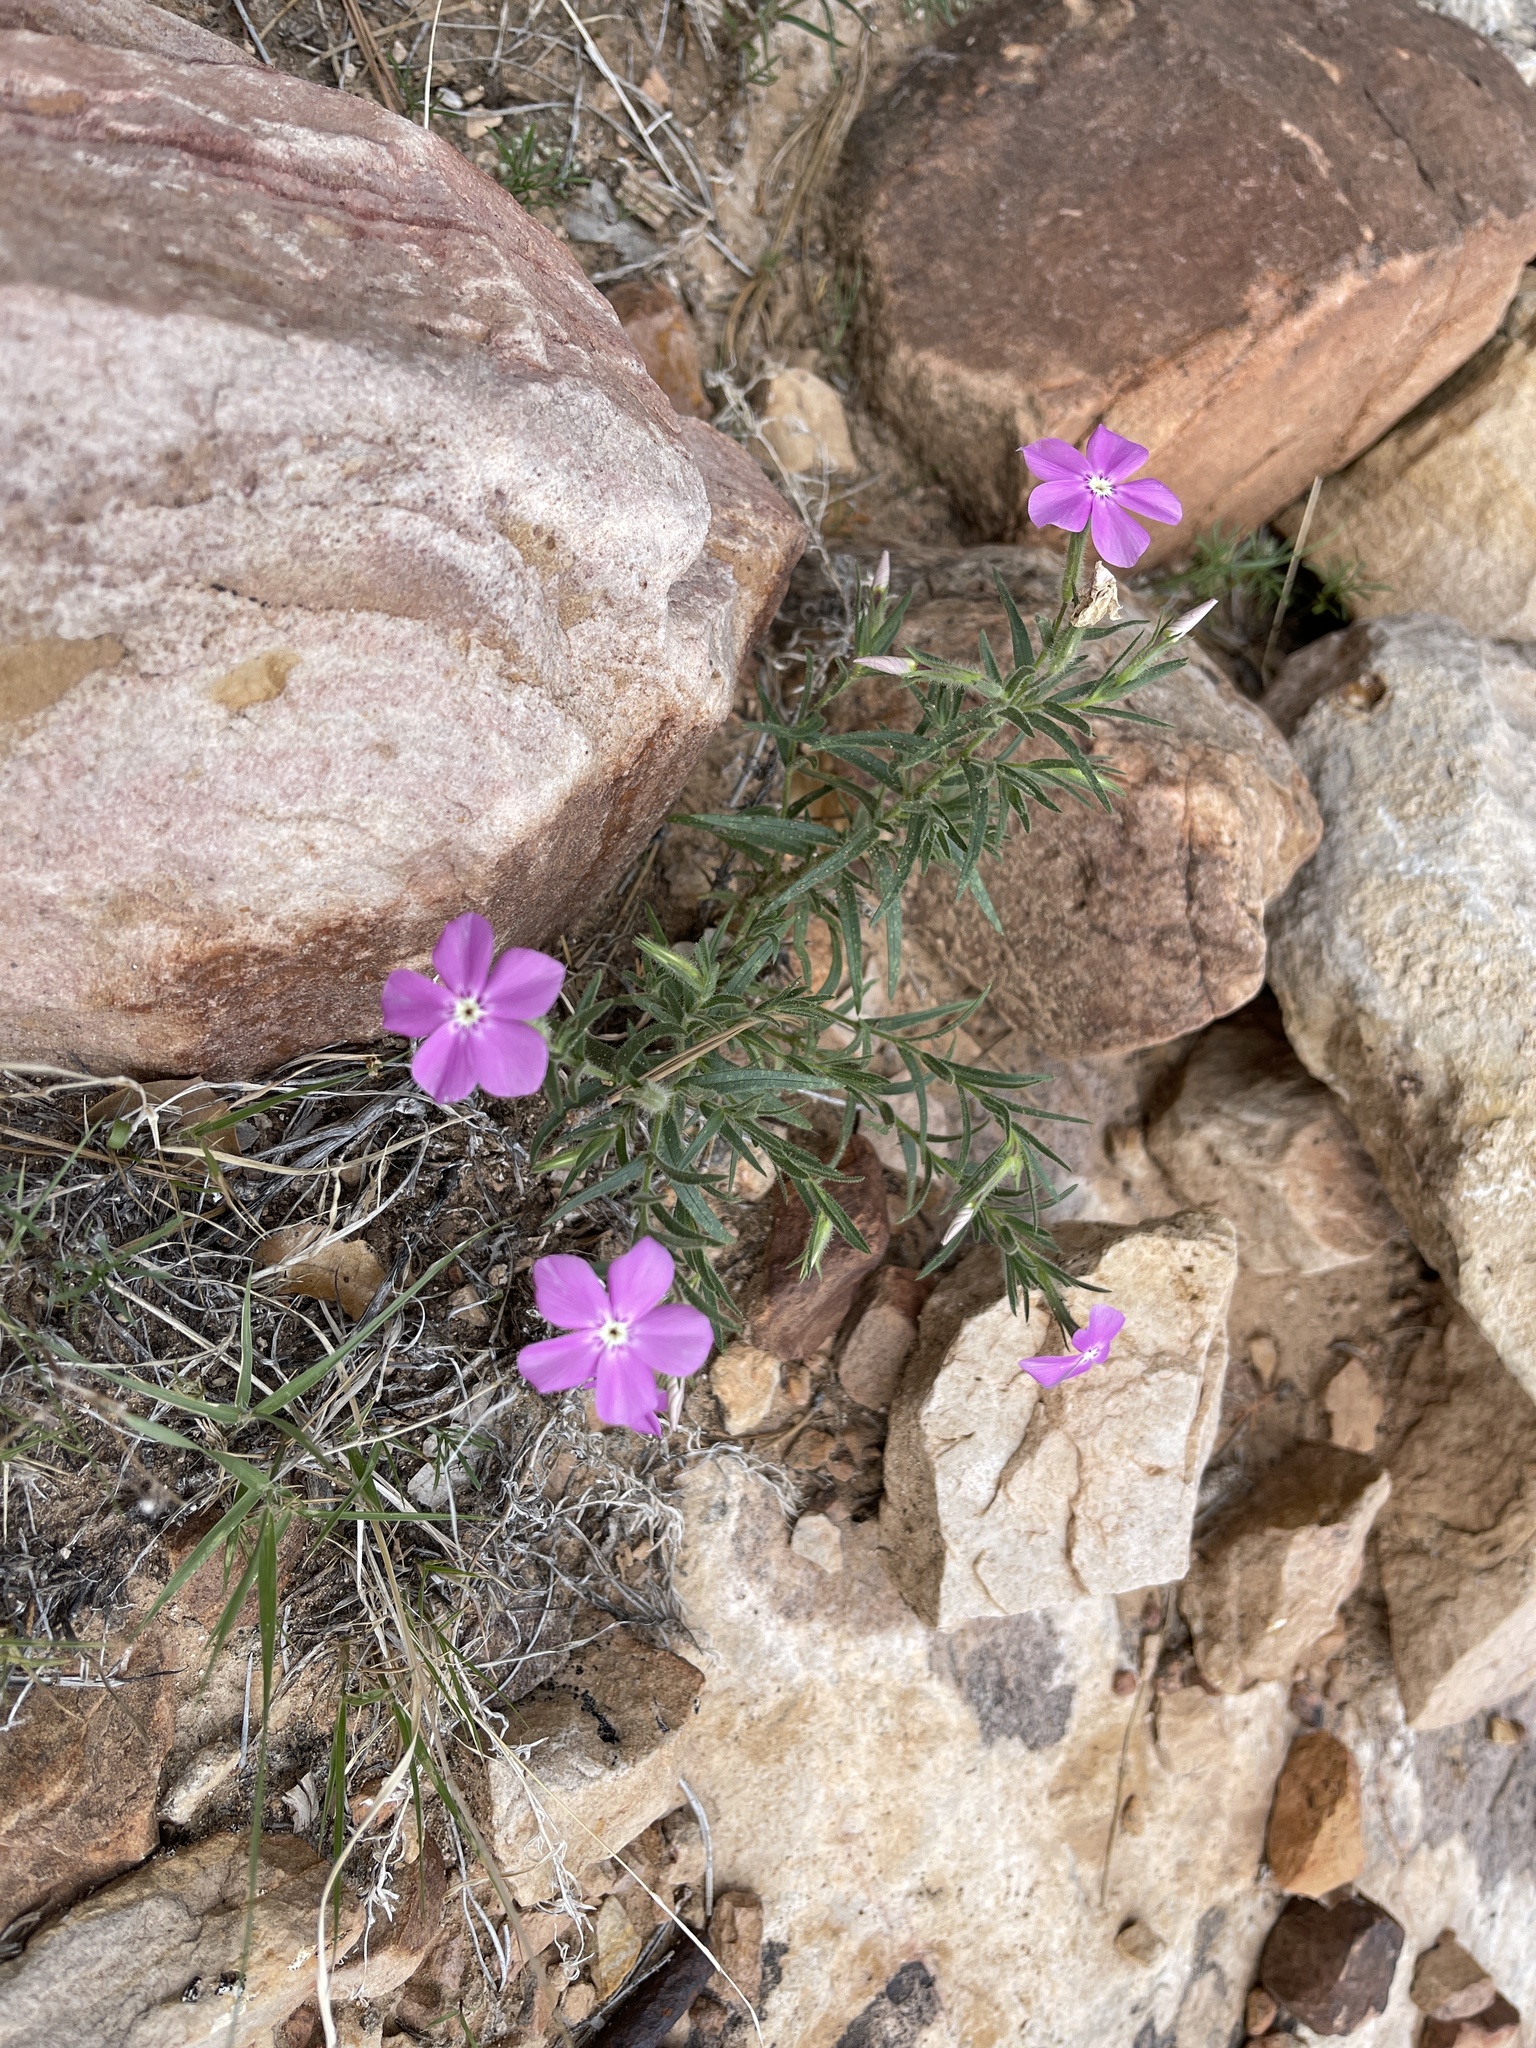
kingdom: Plantae
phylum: Tracheophyta
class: Magnoliopsida
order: Ericales
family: Polemoniaceae
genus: Phlox
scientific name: Phlox nana
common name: Santa fe phlox
